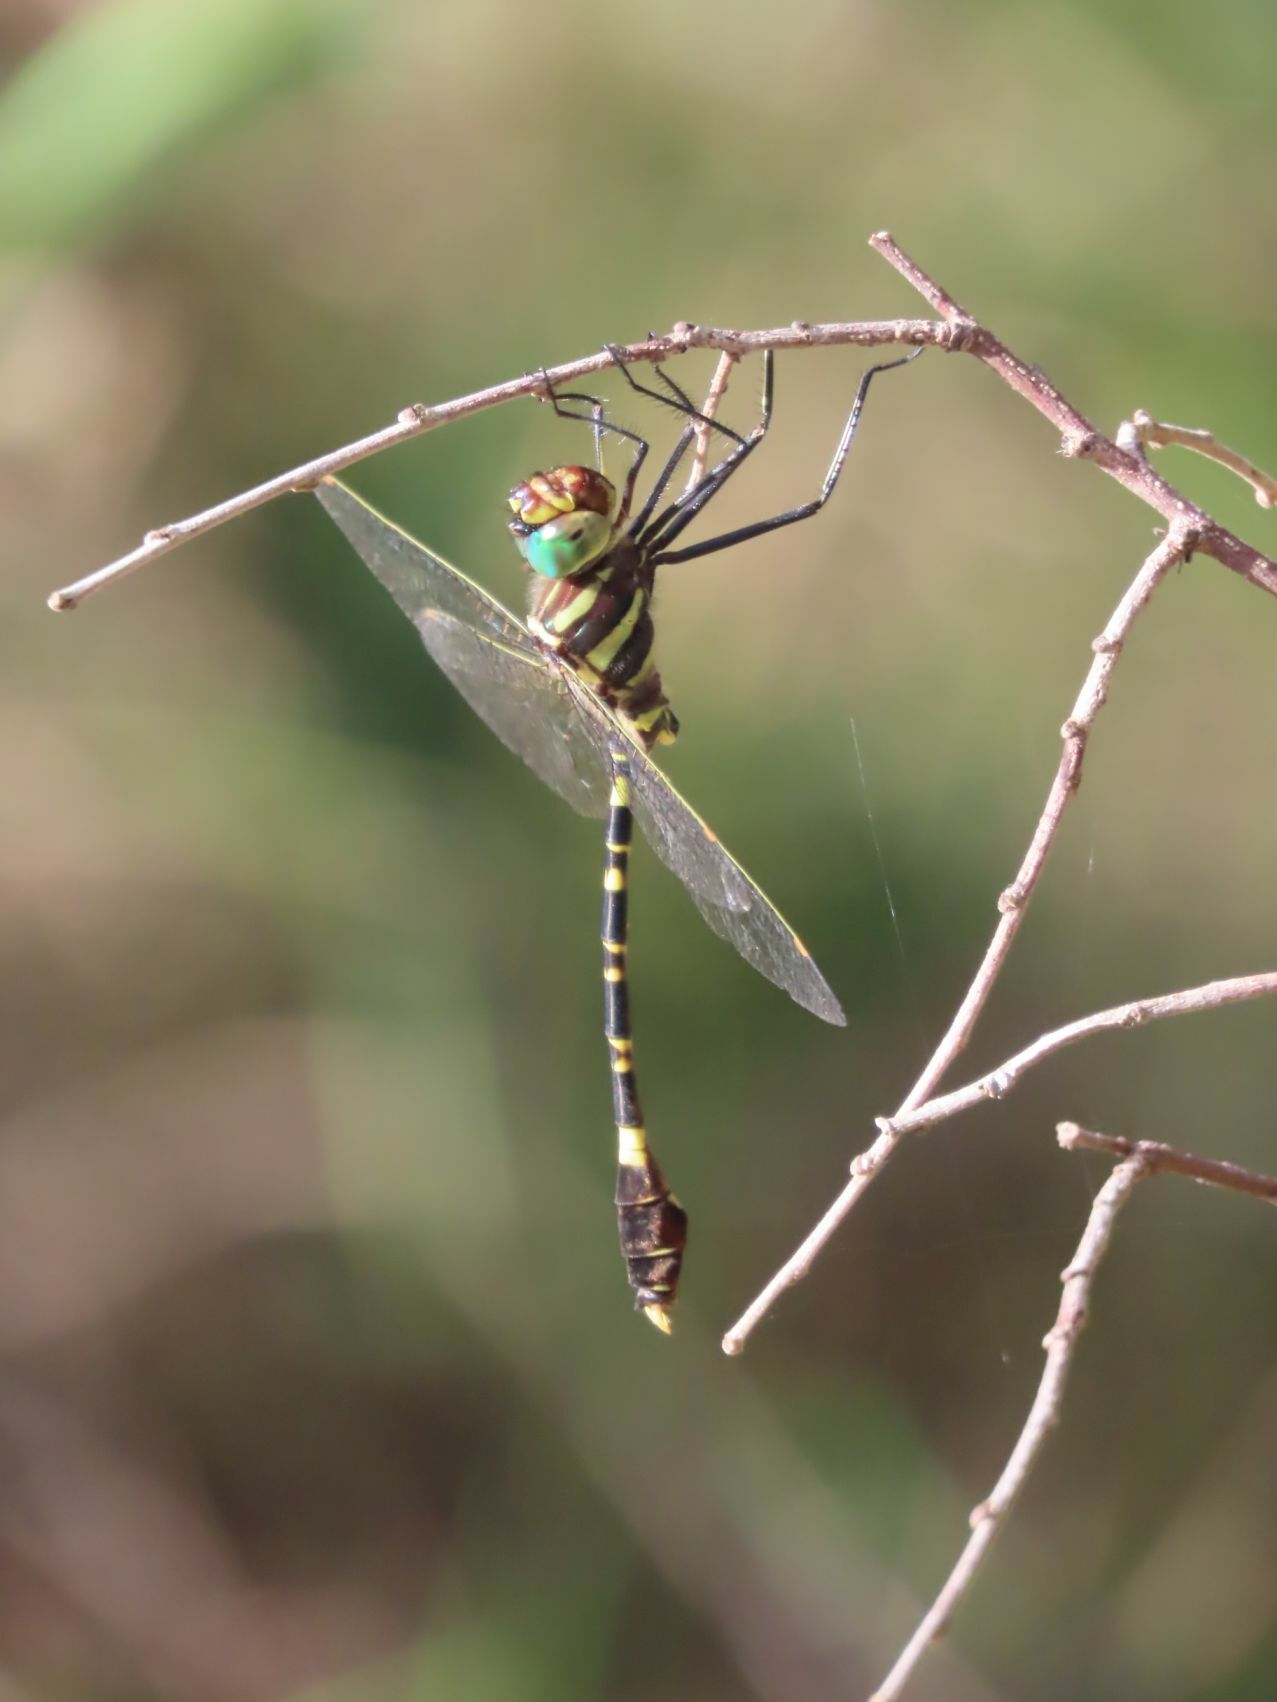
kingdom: Animalia
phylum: Arthropoda
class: Insecta
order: Odonata
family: Macromiidae
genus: Phyllomacromia
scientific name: Phyllomacromia picta
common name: Darting cruiser
